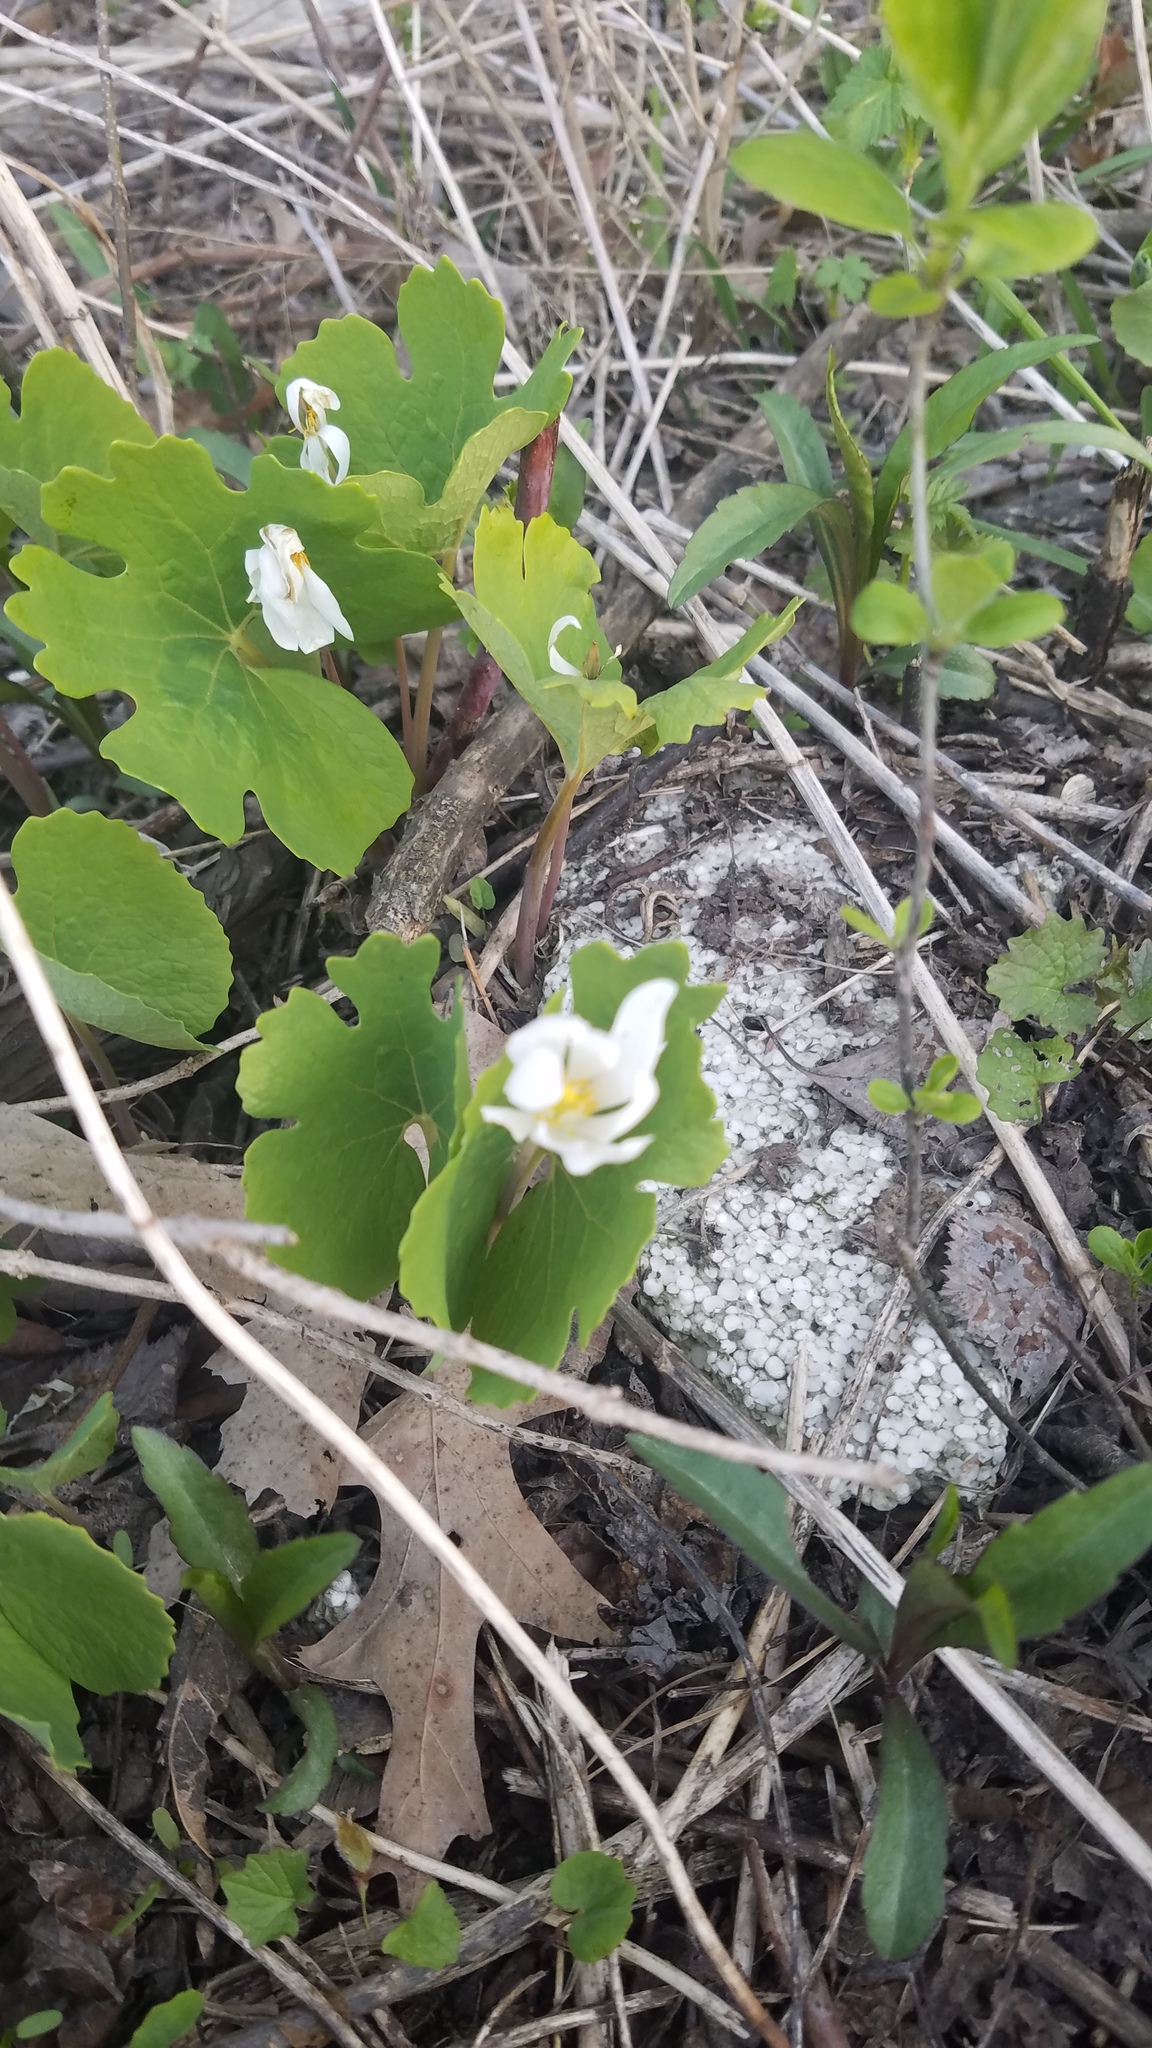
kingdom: Plantae
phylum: Tracheophyta
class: Magnoliopsida
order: Ranunculales
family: Papaveraceae
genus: Sanguinaria
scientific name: Sanguinaria canadensis
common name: Bloodroot
